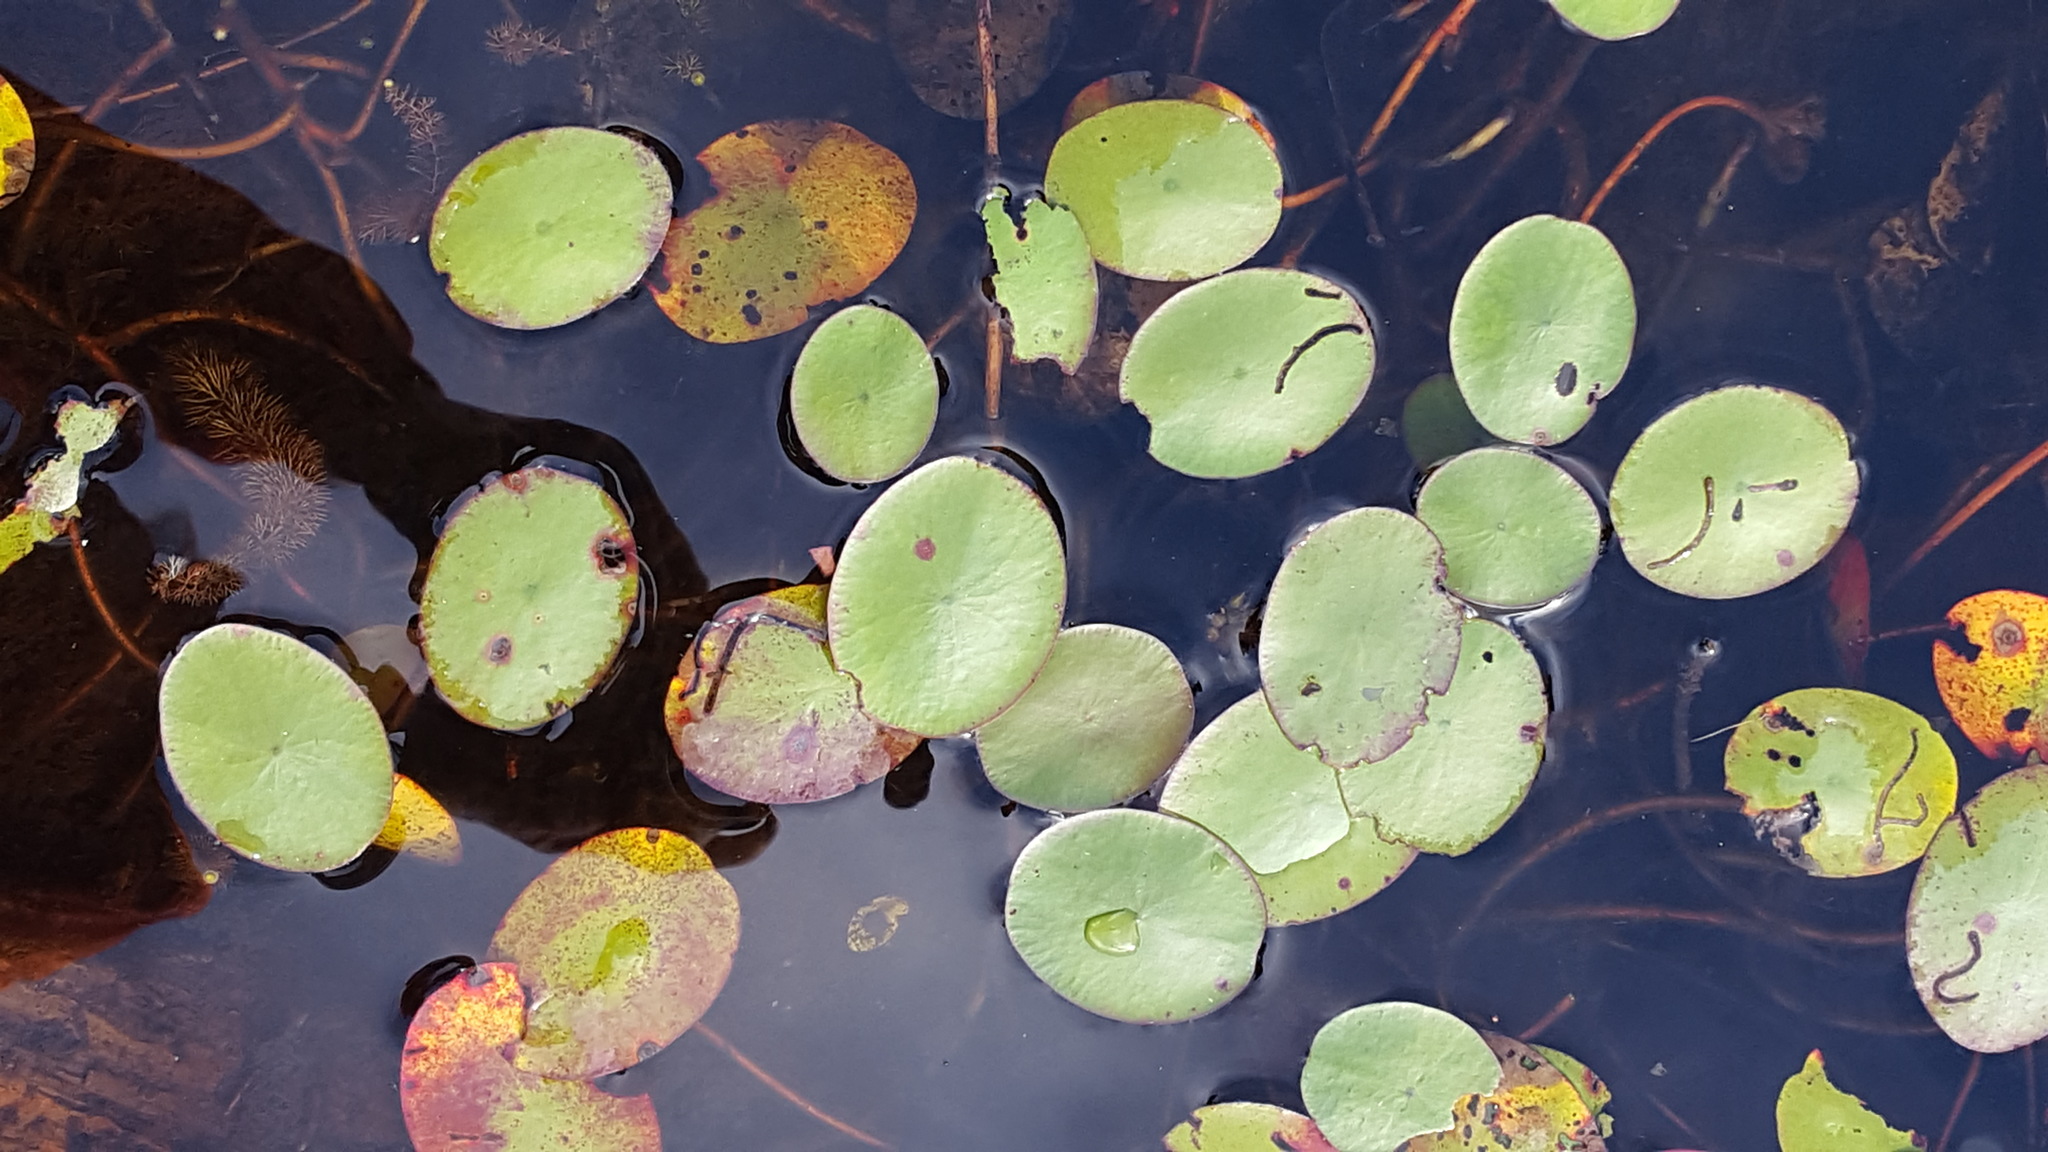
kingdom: Plantae
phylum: Tracheophyta
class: Magnoliopsida
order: Nymphaeales
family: Cabombaceae
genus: Brasenia
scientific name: Brasenia schreberi
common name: Water-shield
